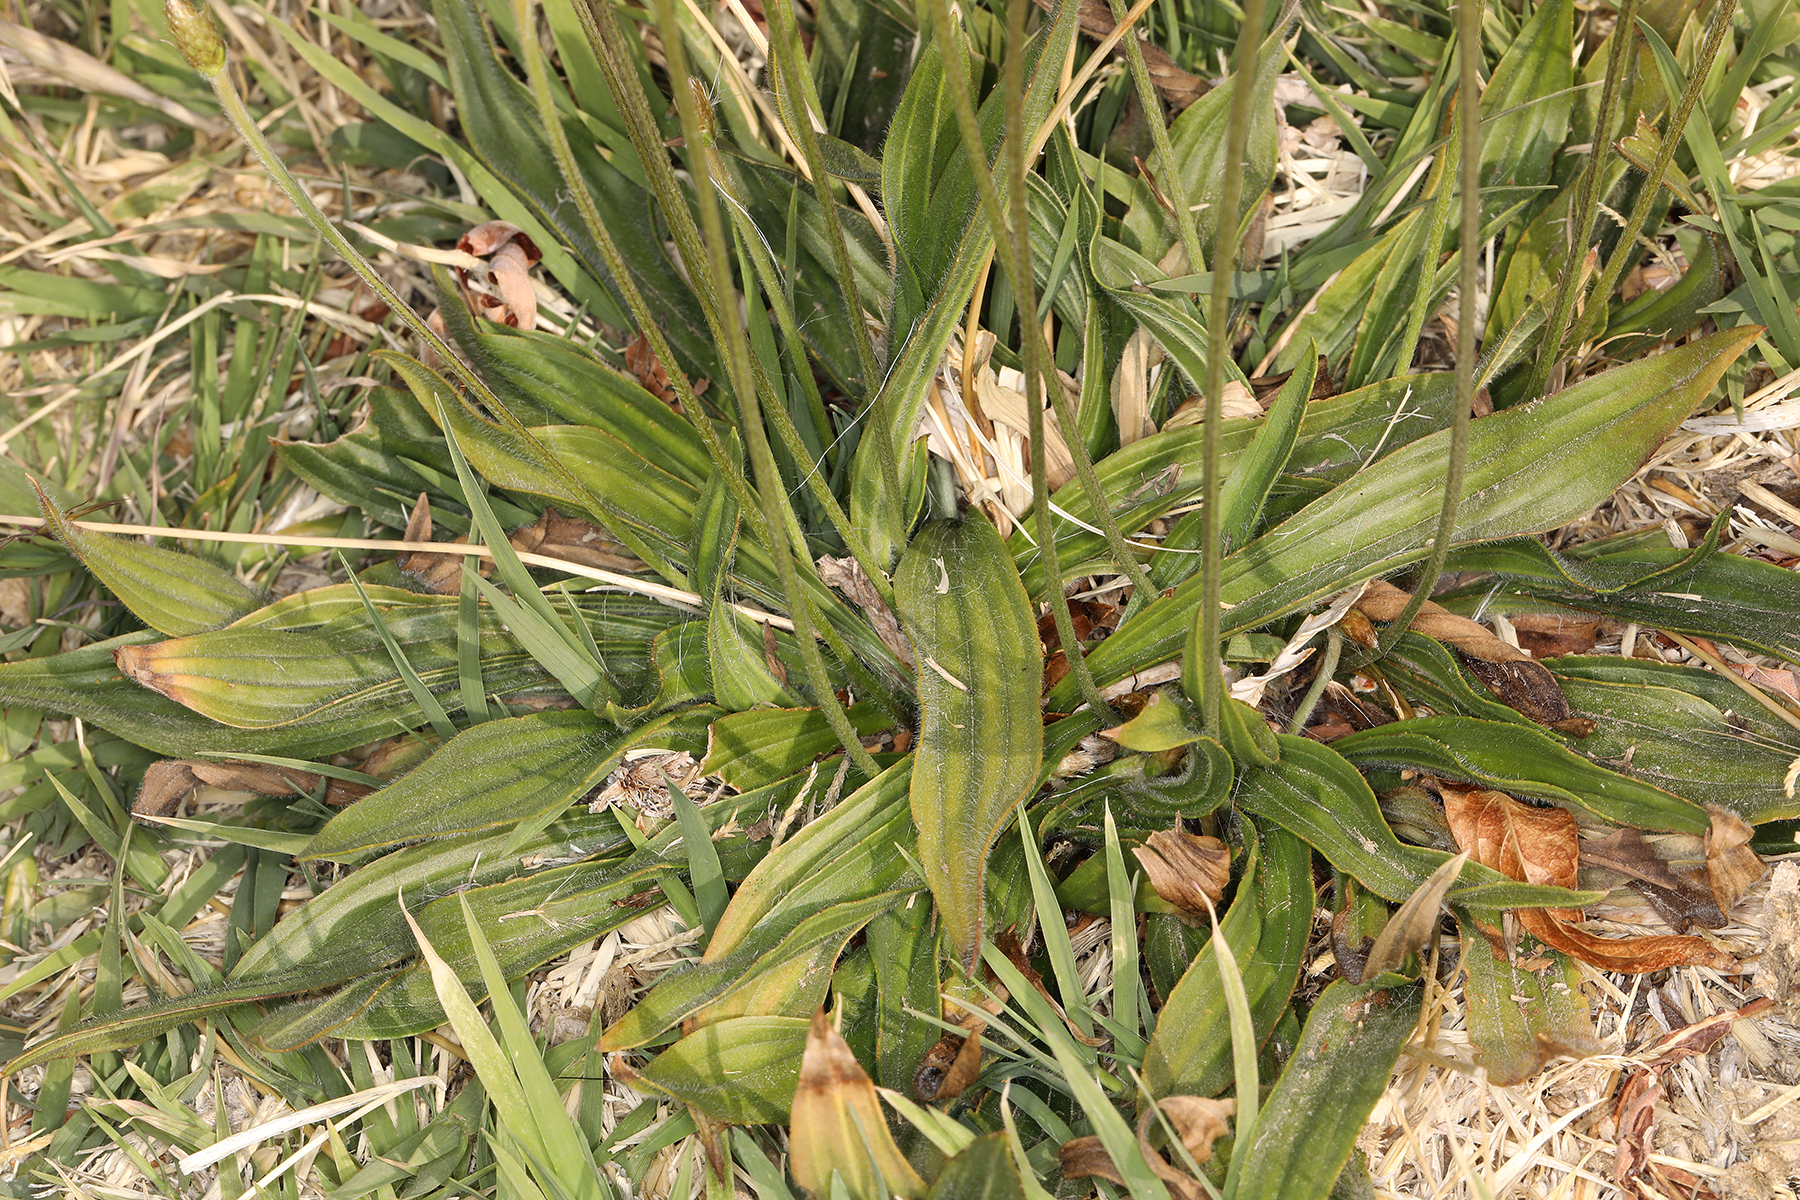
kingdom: Plantae
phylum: Tracheophyta
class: Magnoliopsida
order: Lamiales
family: Plantaginaceae
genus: Plantago
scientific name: Plantago lanceolata
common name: Ribwort plantain
